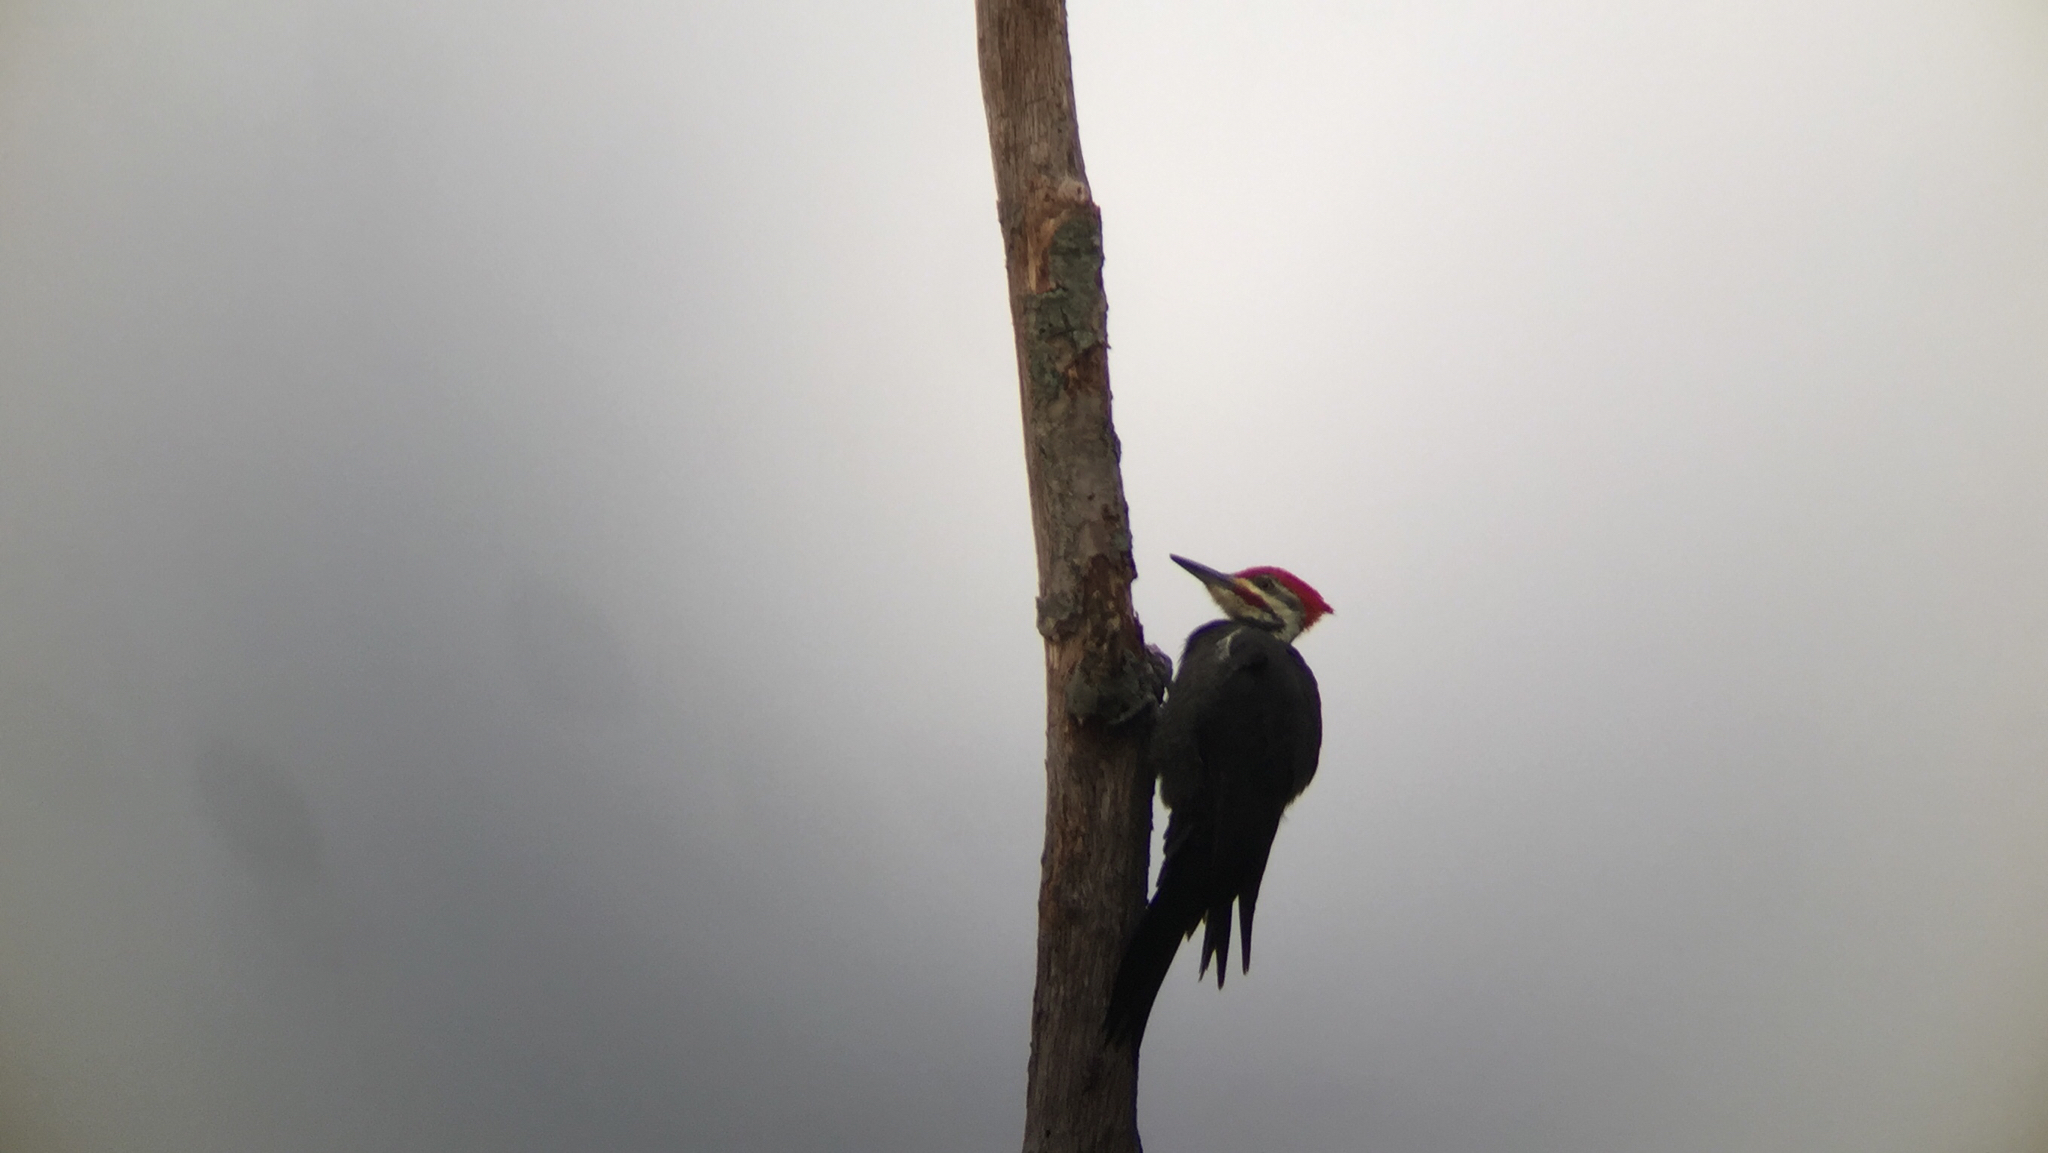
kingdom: Animalia
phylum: Chordata
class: Aves
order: Piciformes
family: Picidae
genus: Dryocopus
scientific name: Dryocopus pileatus
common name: Pileated woodpecker
